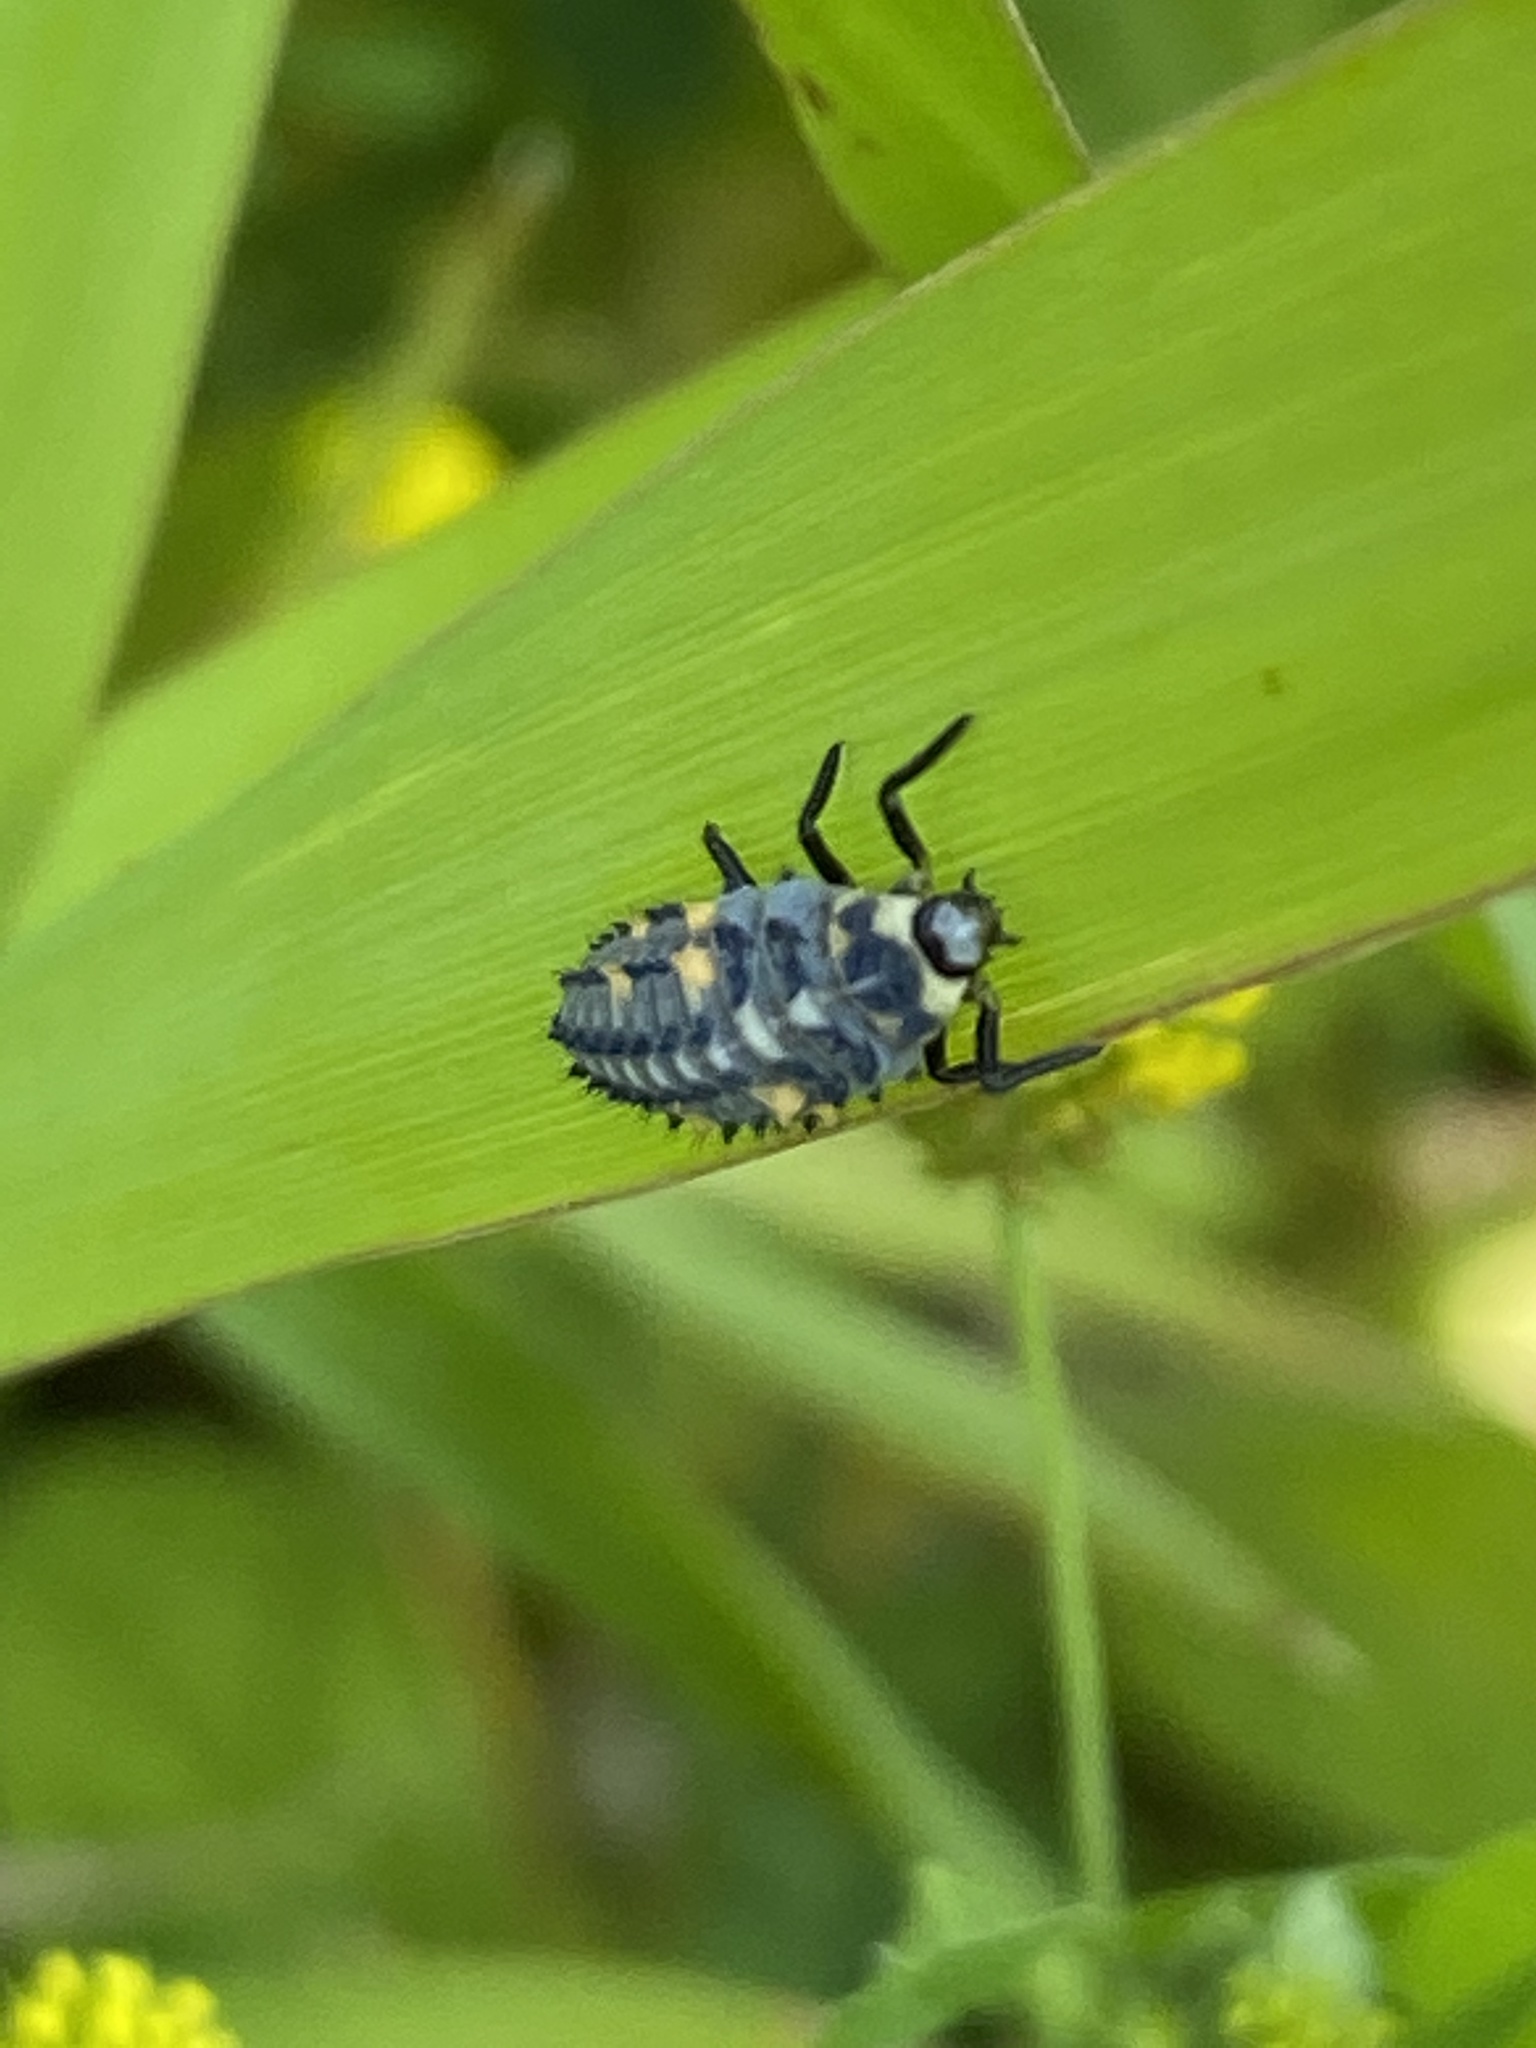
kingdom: Animalia
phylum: Arthropoda
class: Insecta
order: Coleoptera
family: Coccinellidae
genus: Coccinella
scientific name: Coccinella septempunctata
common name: Sevenspotted lady beetle
